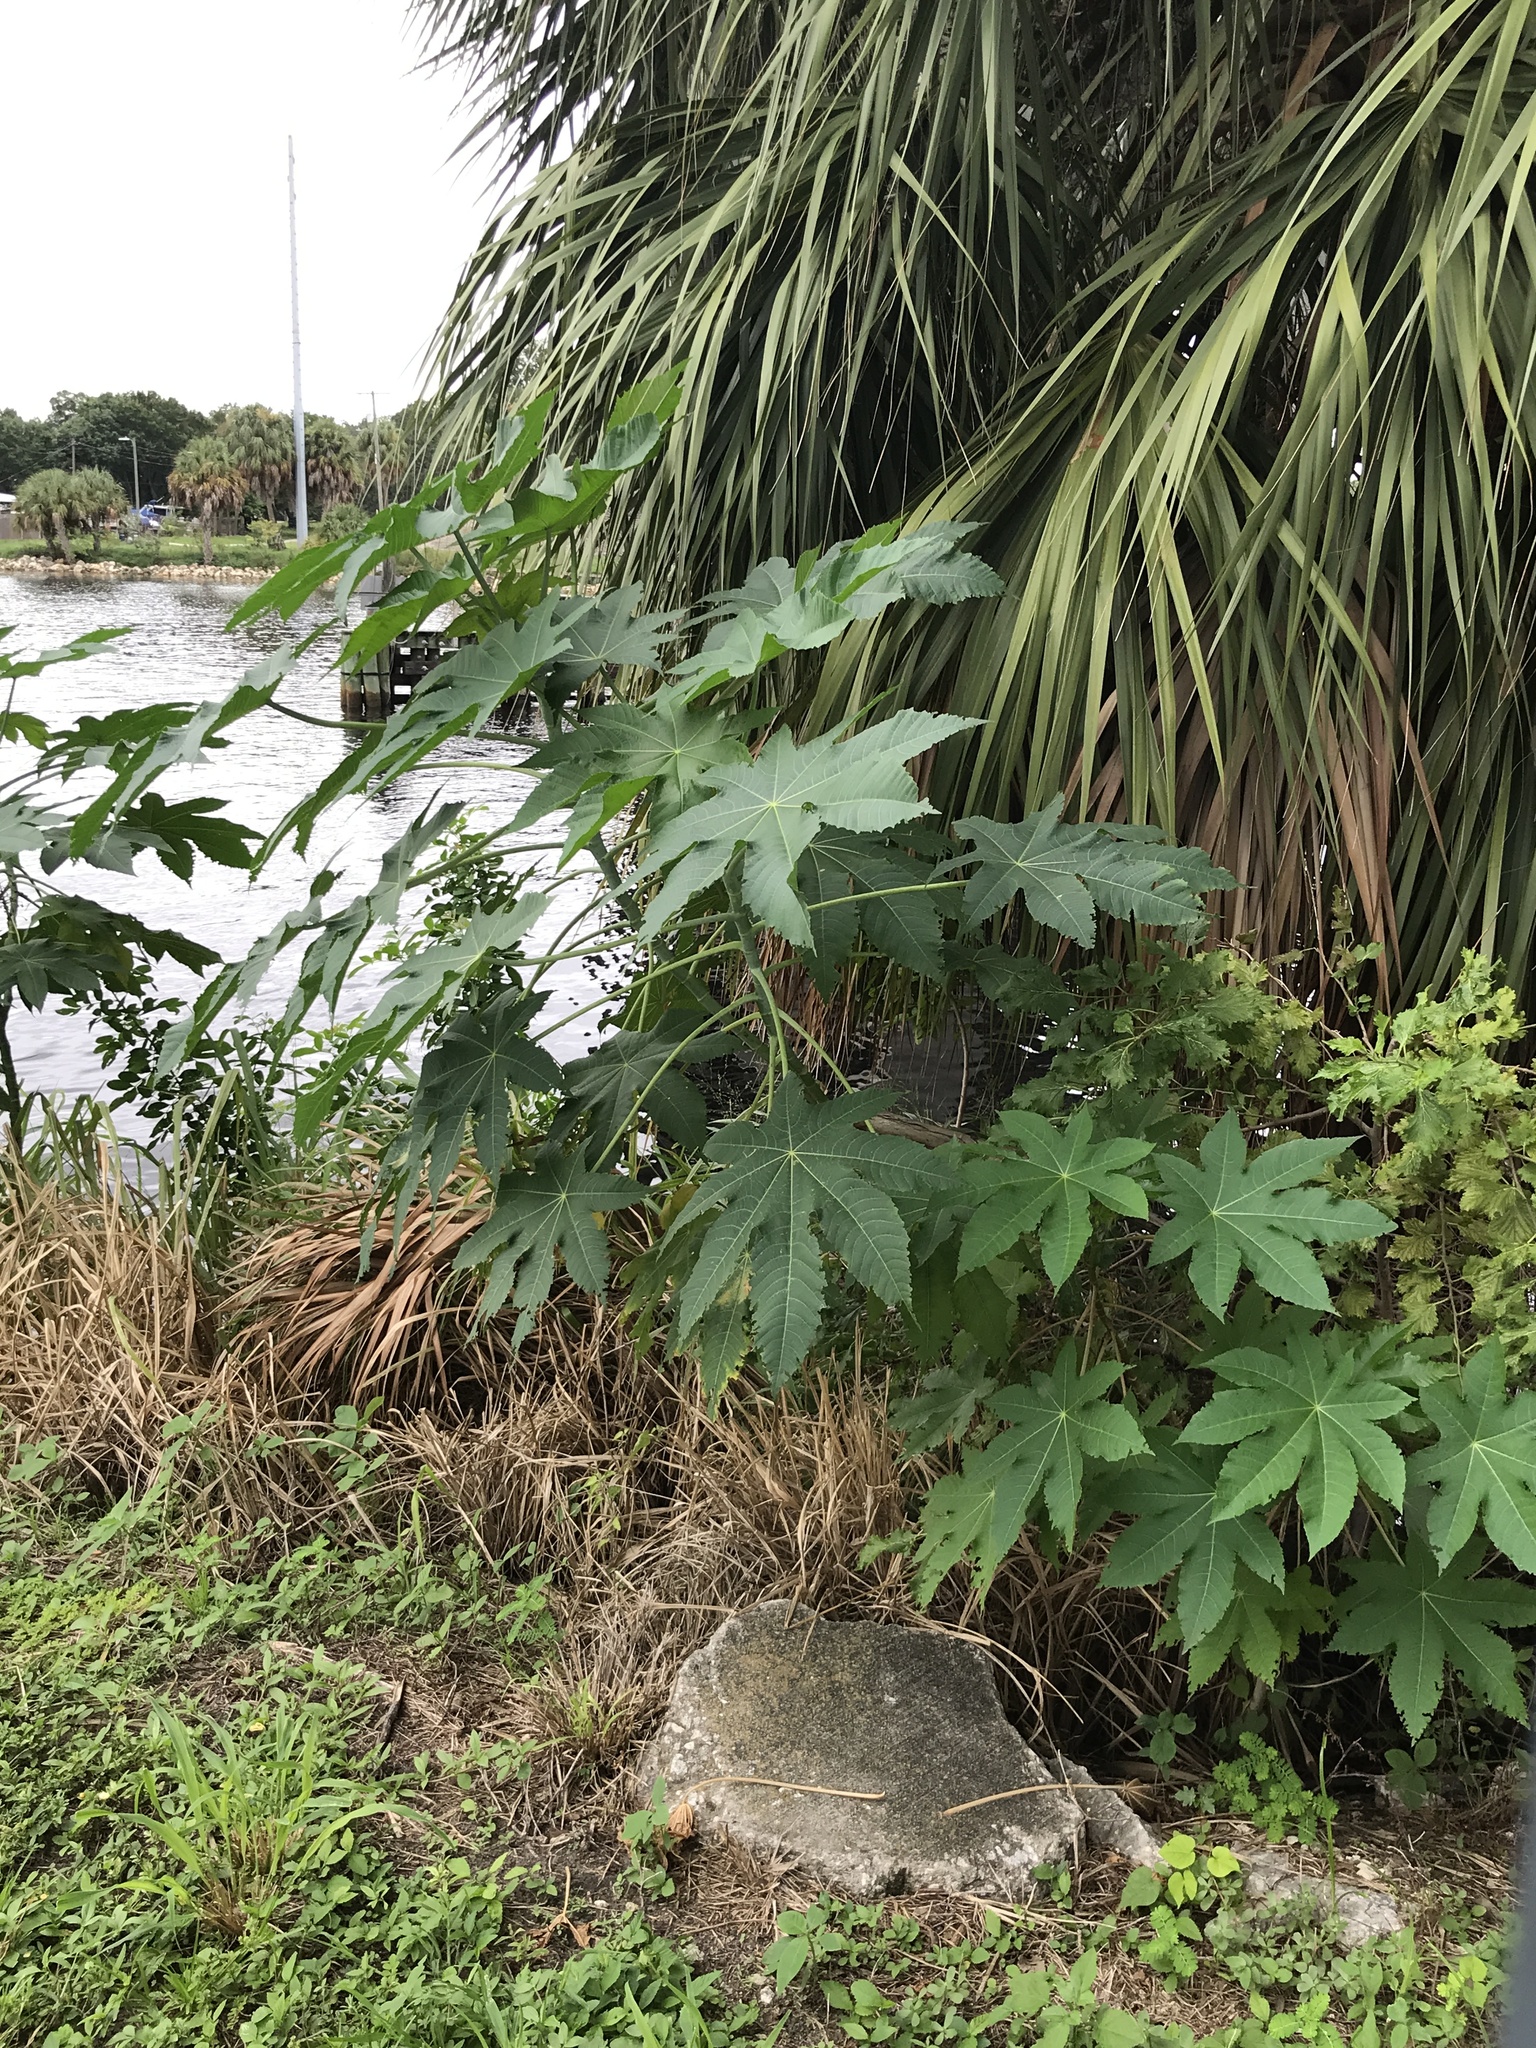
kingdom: Plantae
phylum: Tracheophyta
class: Magnoliopsida
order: Malpighiales
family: Euphorbiaceae
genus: Ricinus
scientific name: Ricinus communis
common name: Castor-oil-plant
